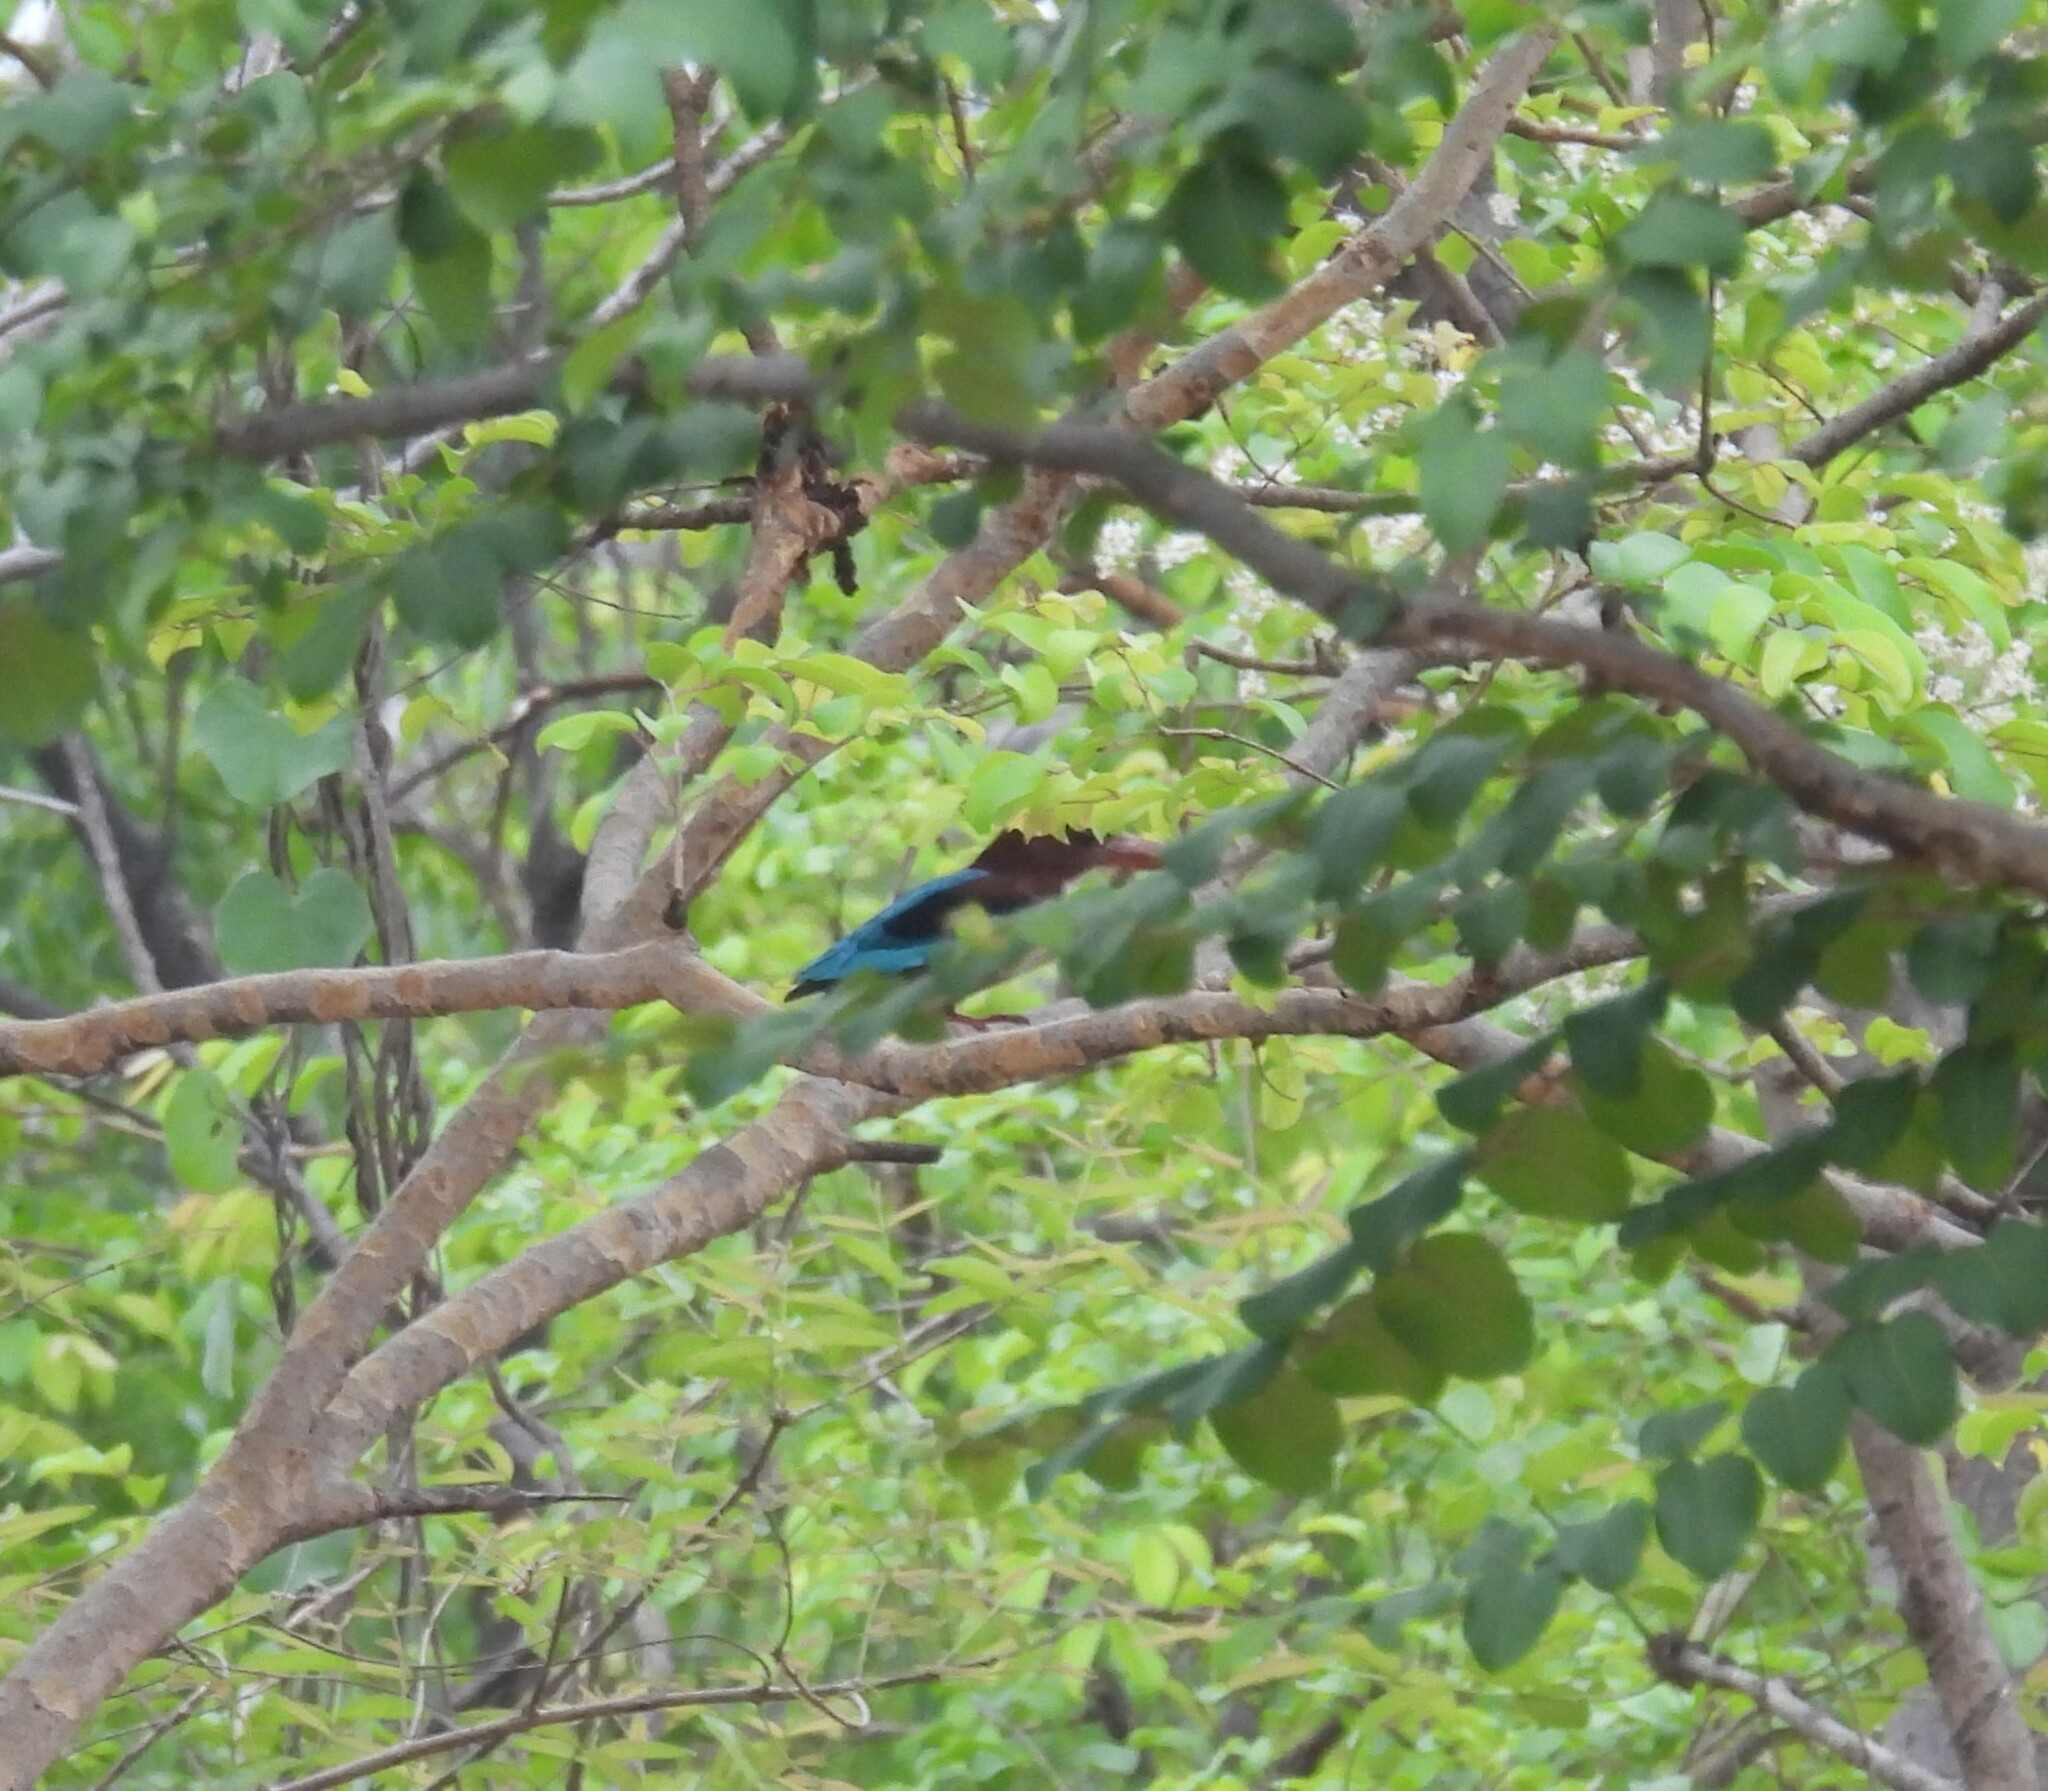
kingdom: Animalia
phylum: Chordata
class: Aves
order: Coraciiformes
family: Alcedinidae
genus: Halcyon
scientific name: Halcyon smyrnensis
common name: White-throated kingfisher
